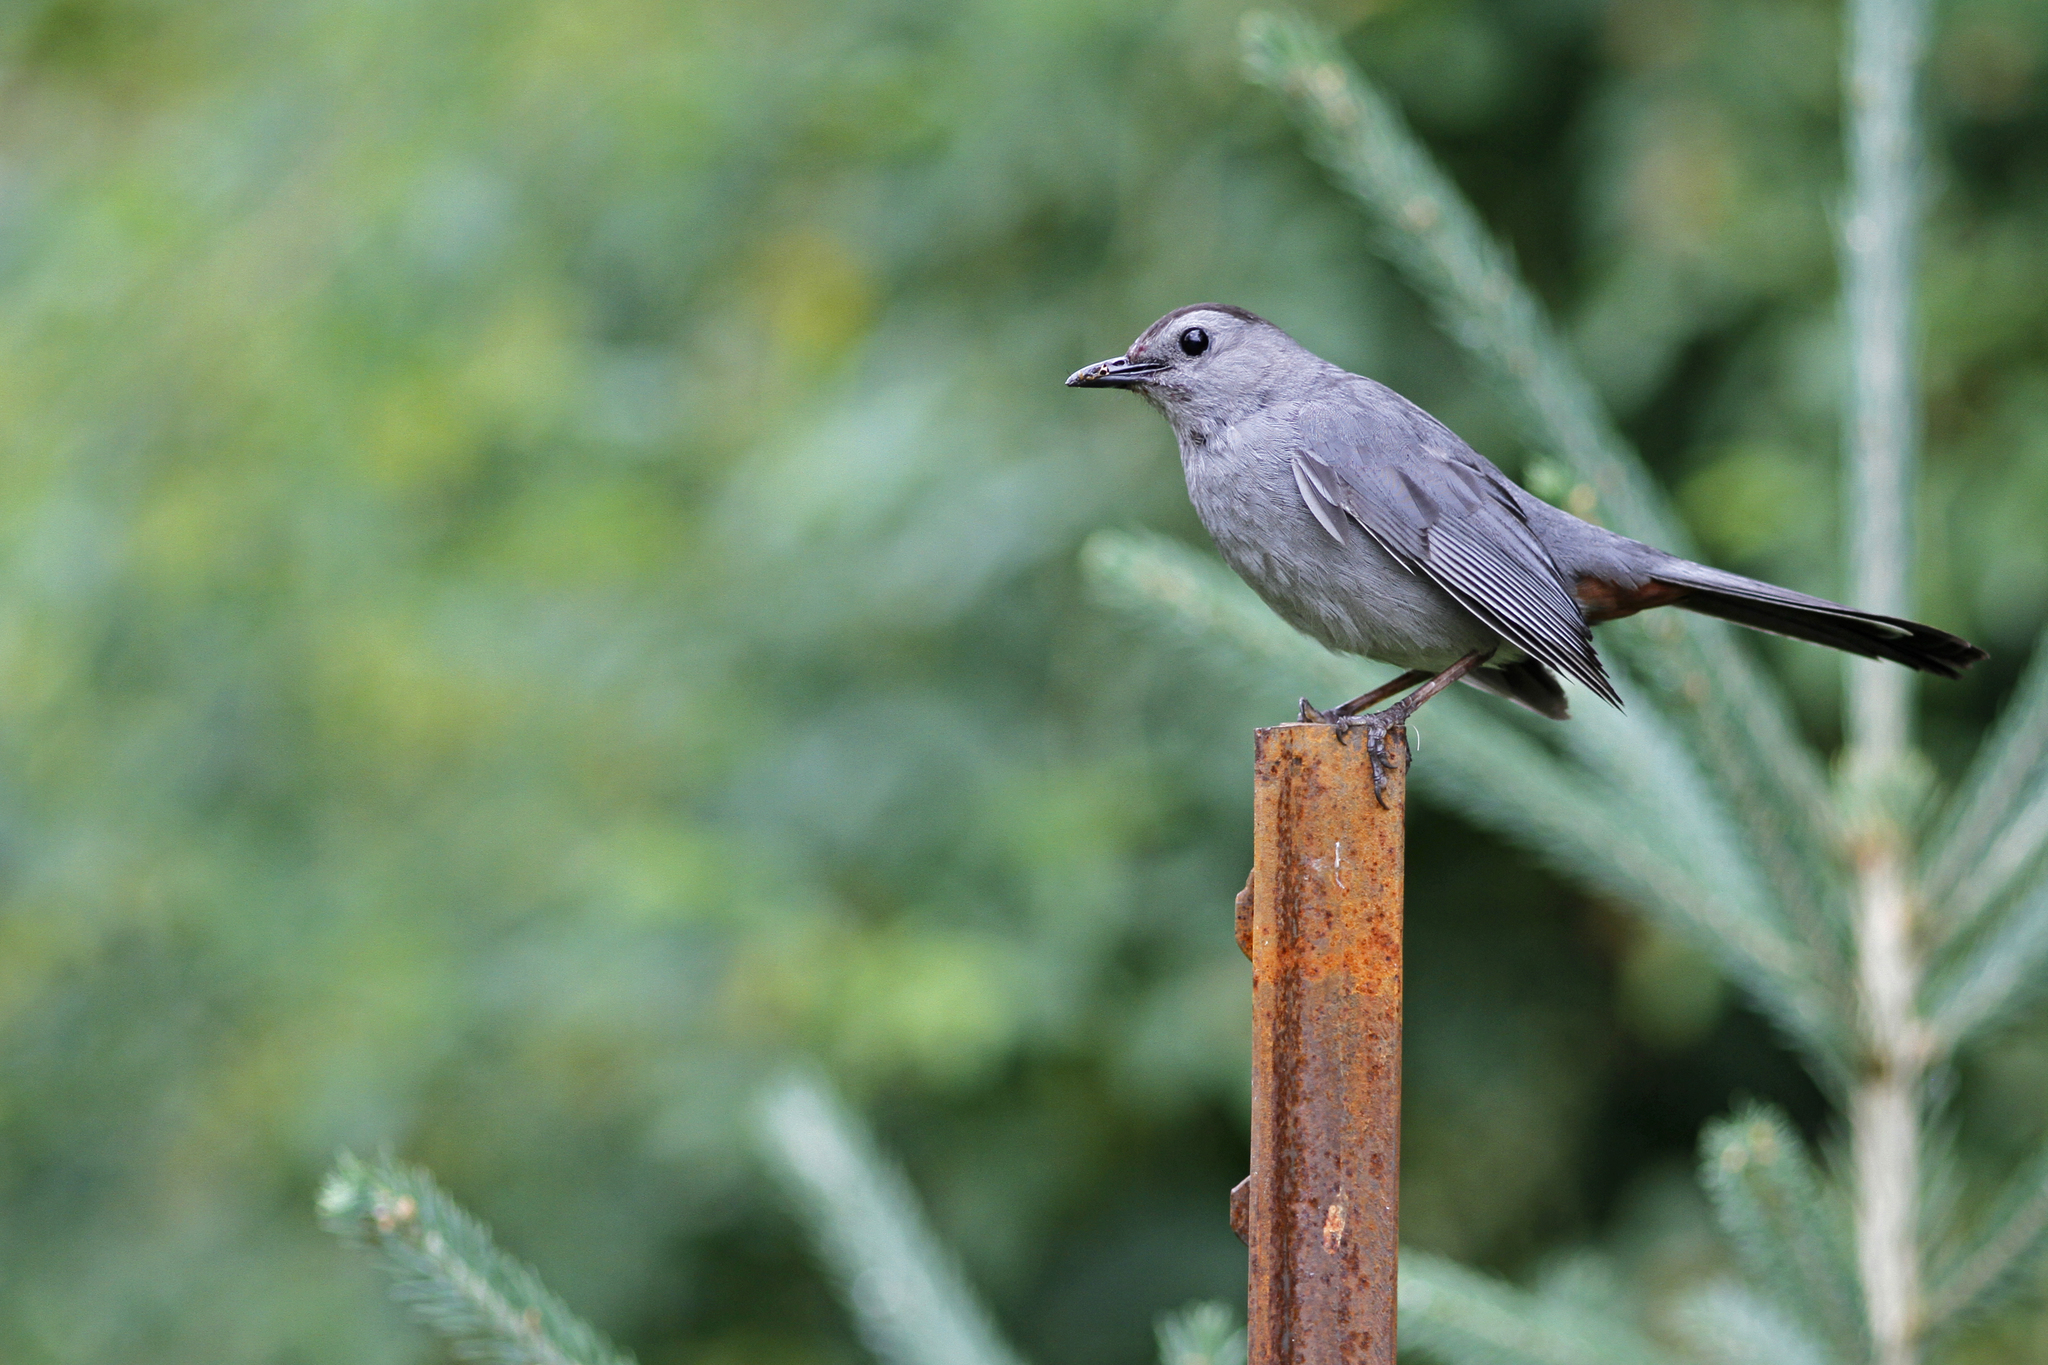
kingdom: Animalia
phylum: Chordata
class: Aves
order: Passeriformes
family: Mimidae
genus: Dumetella
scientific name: Dumetella carolinensis
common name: Gray catbird
